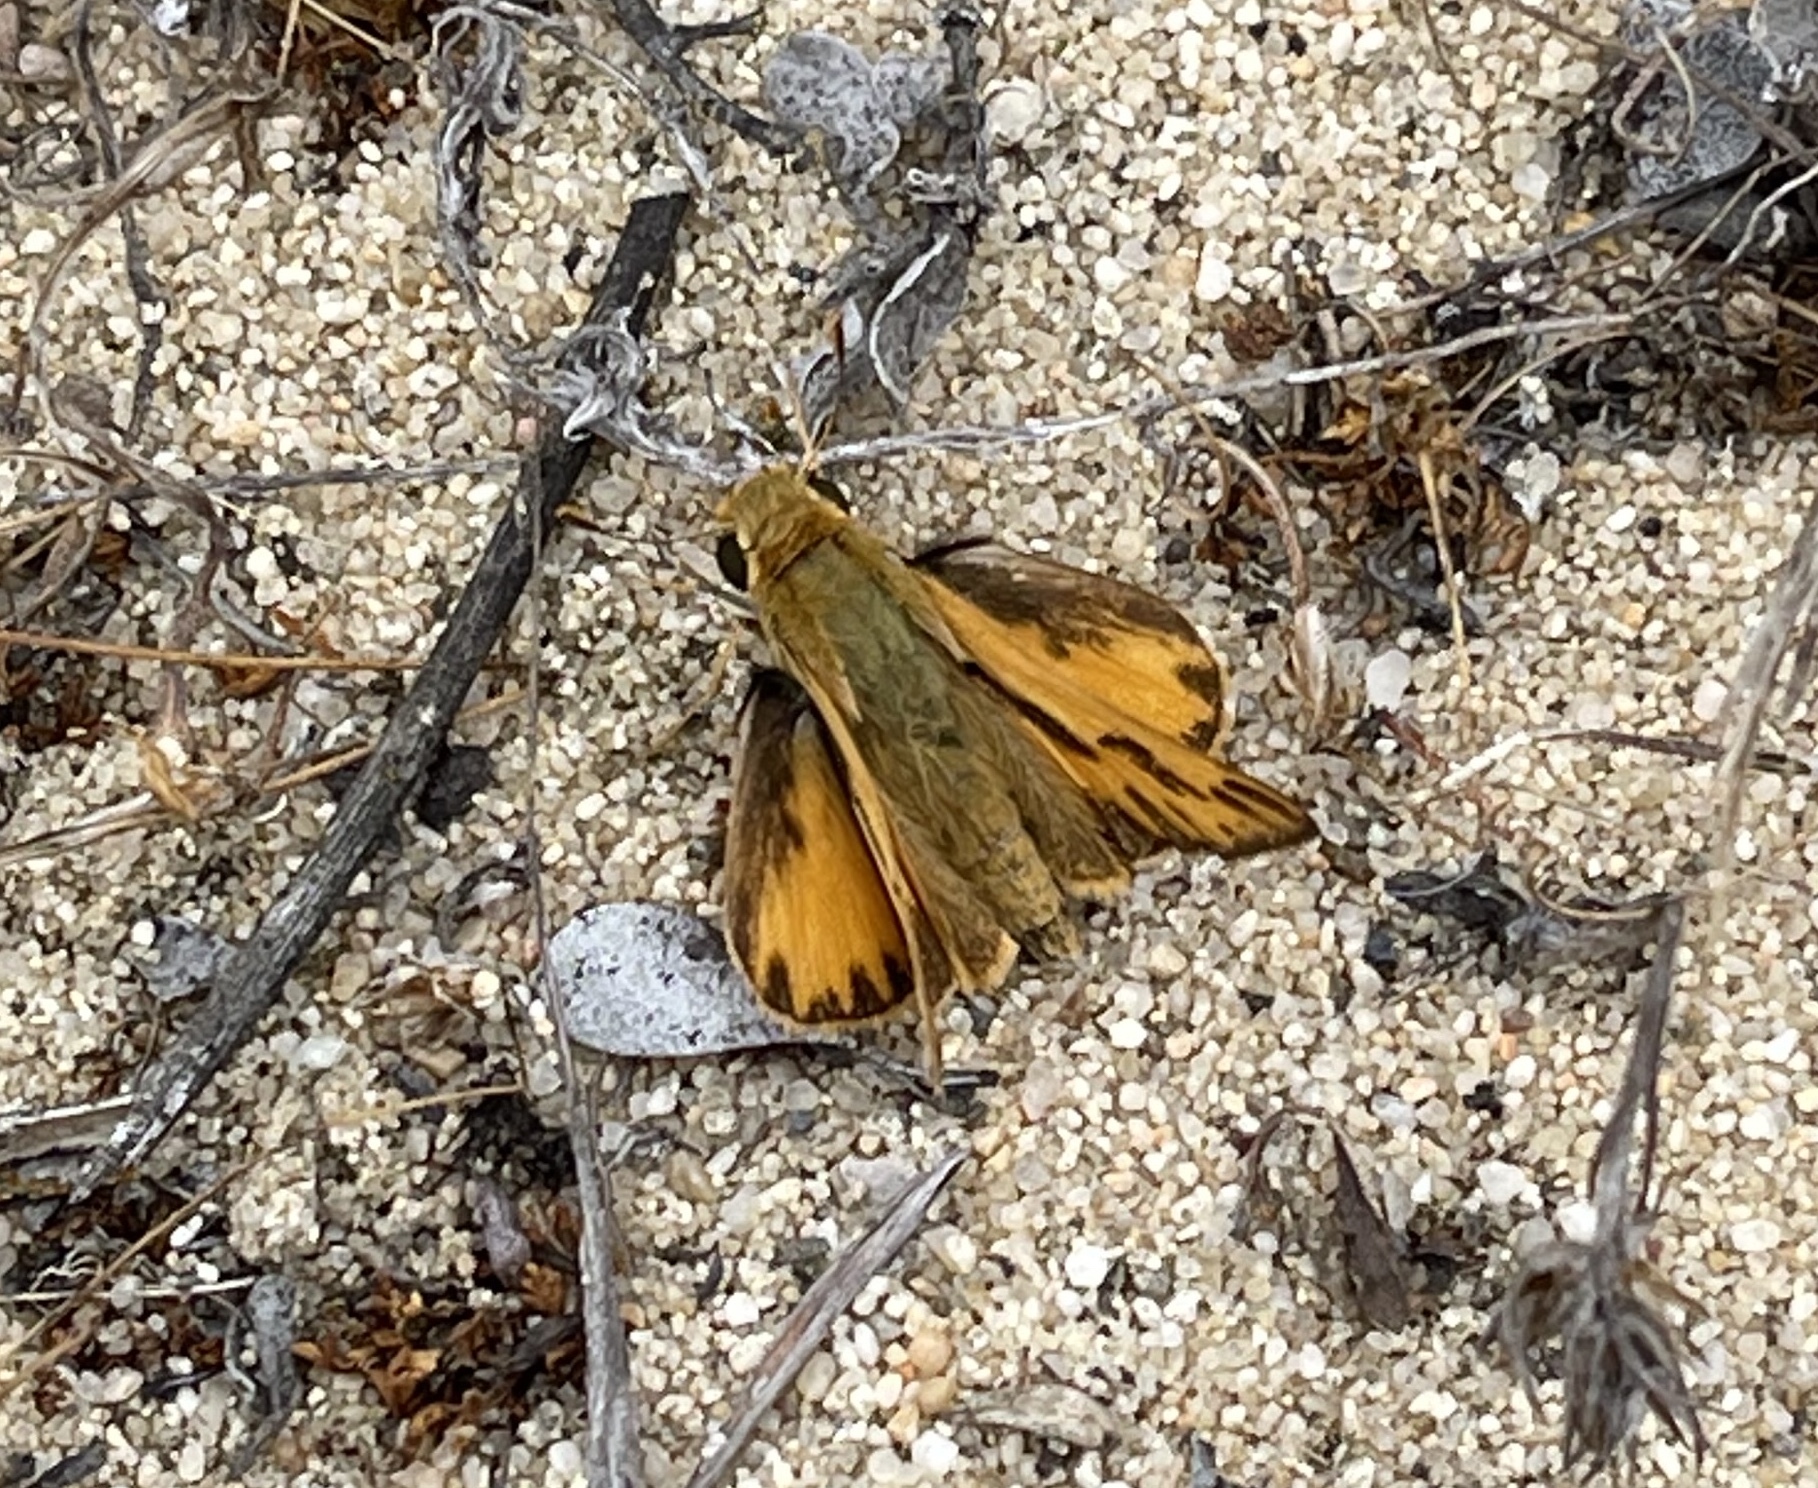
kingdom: Animalia
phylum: Arthropoda
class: Insecta
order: Lepidoptera
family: Hesperiidae
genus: Hylephila
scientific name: Hylephila phyleus
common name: Fiery skipper
